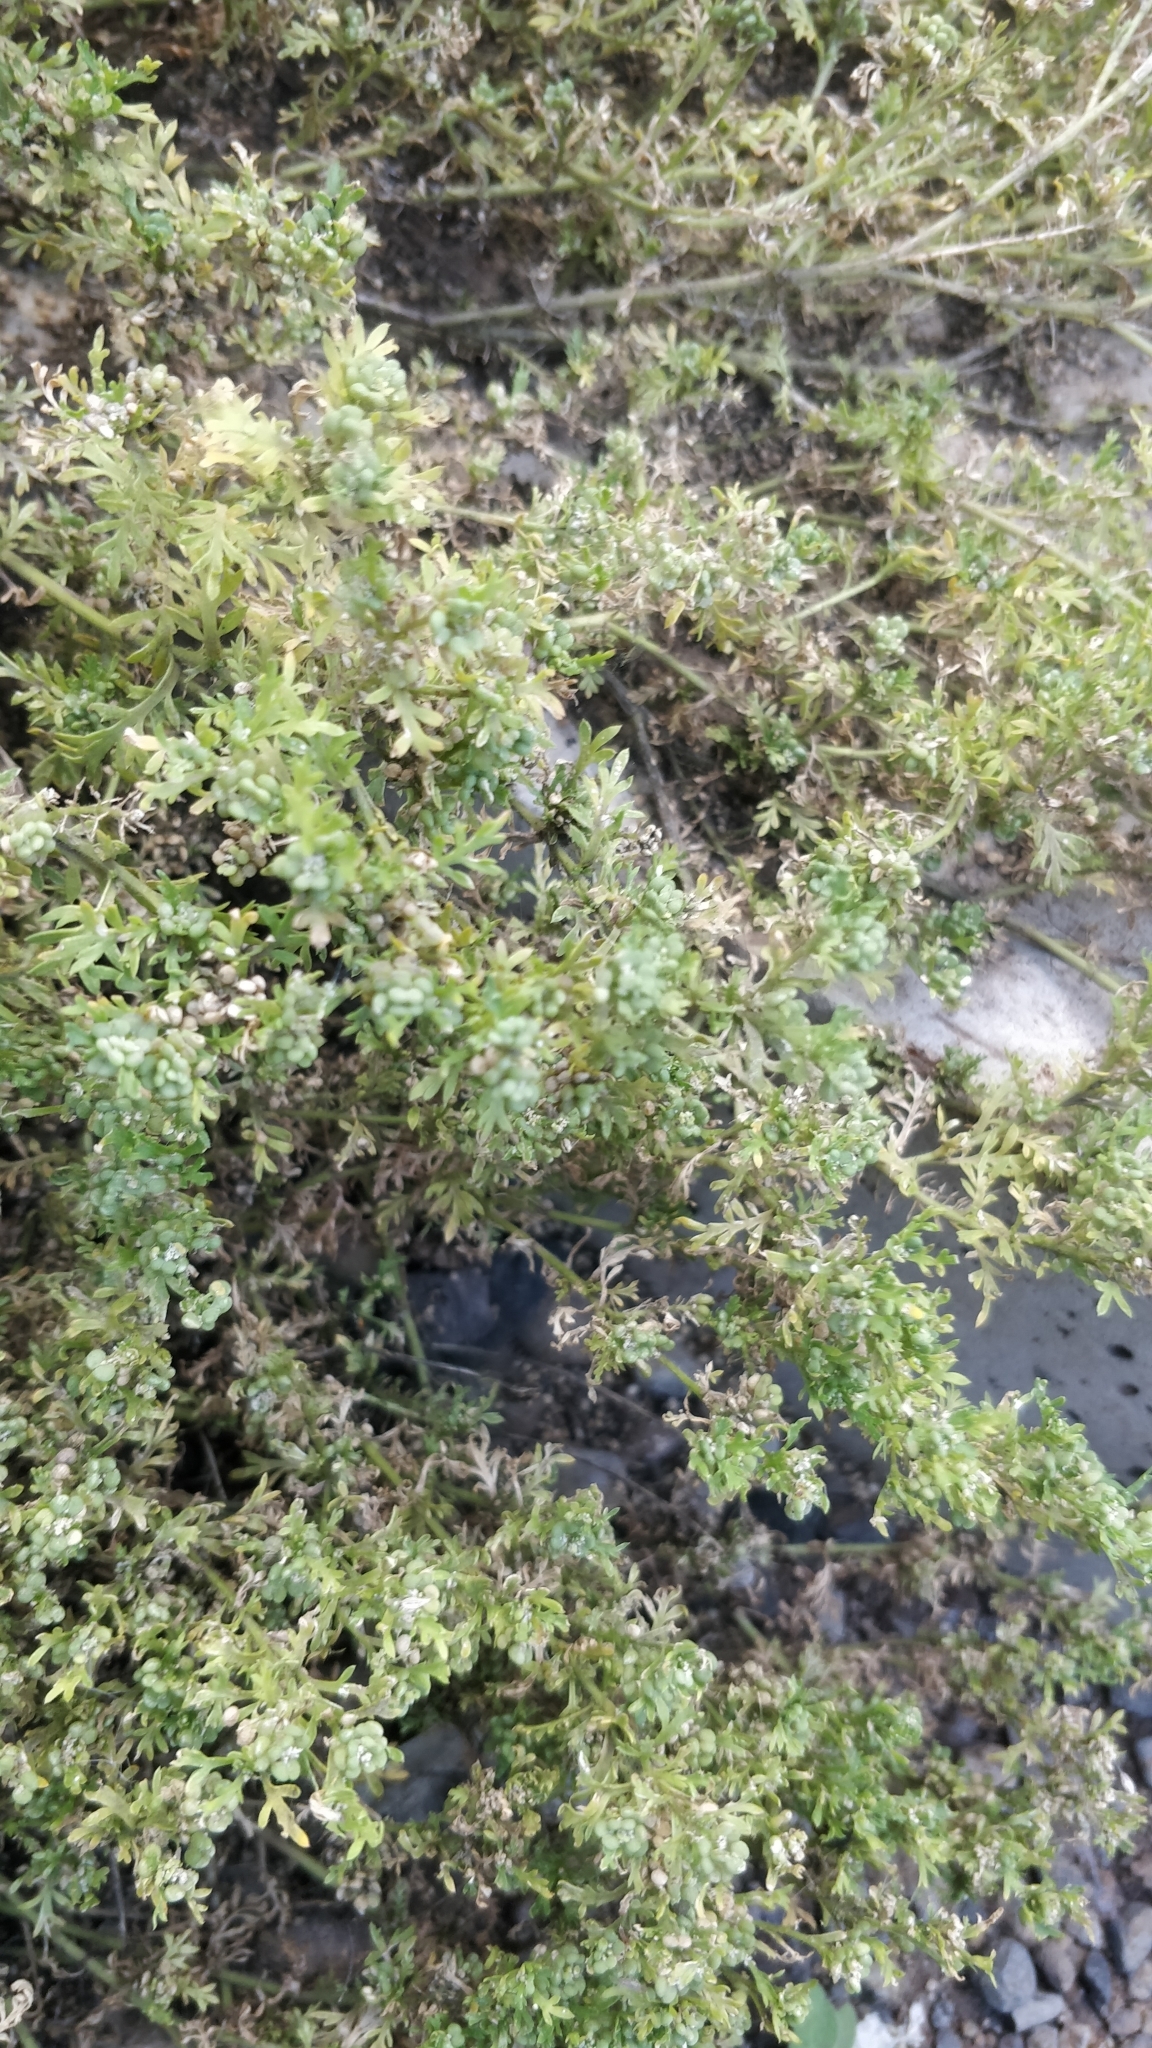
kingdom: Plantae
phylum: Tracheophyta
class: Magnoliopsida
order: Brassicales
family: Brassicaceae
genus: Lepidium
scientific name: Lepidium didymum
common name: Lesser swinecress
